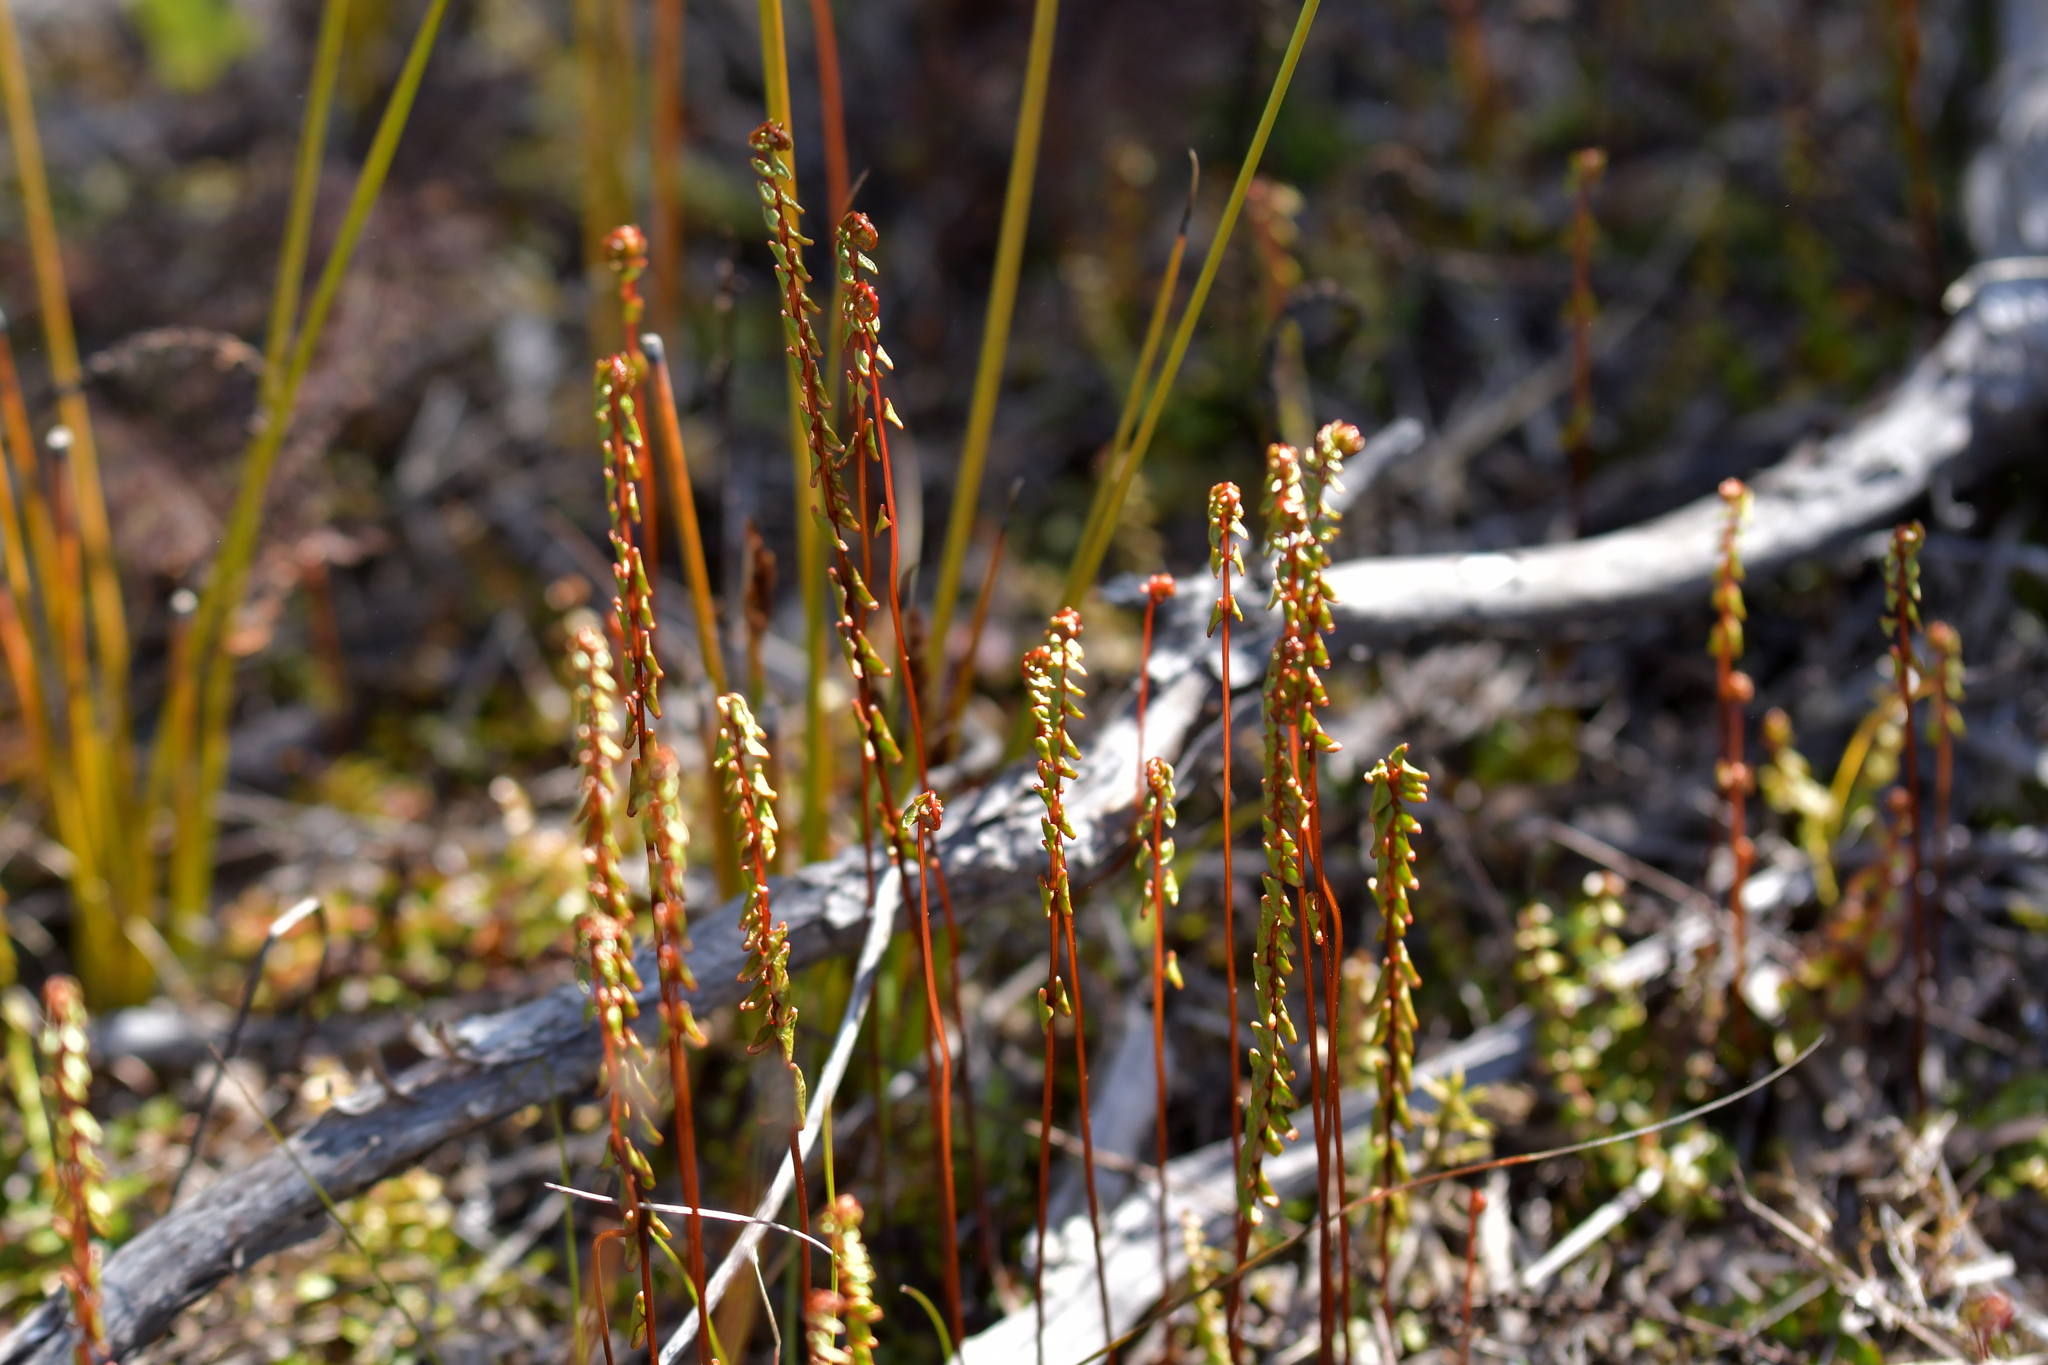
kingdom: Plantae
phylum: Tracheophyta
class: Polypodiopsida
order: Polypodiales
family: Lindsaeaceae
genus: Lindsaea
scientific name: Lindsaea linearis
